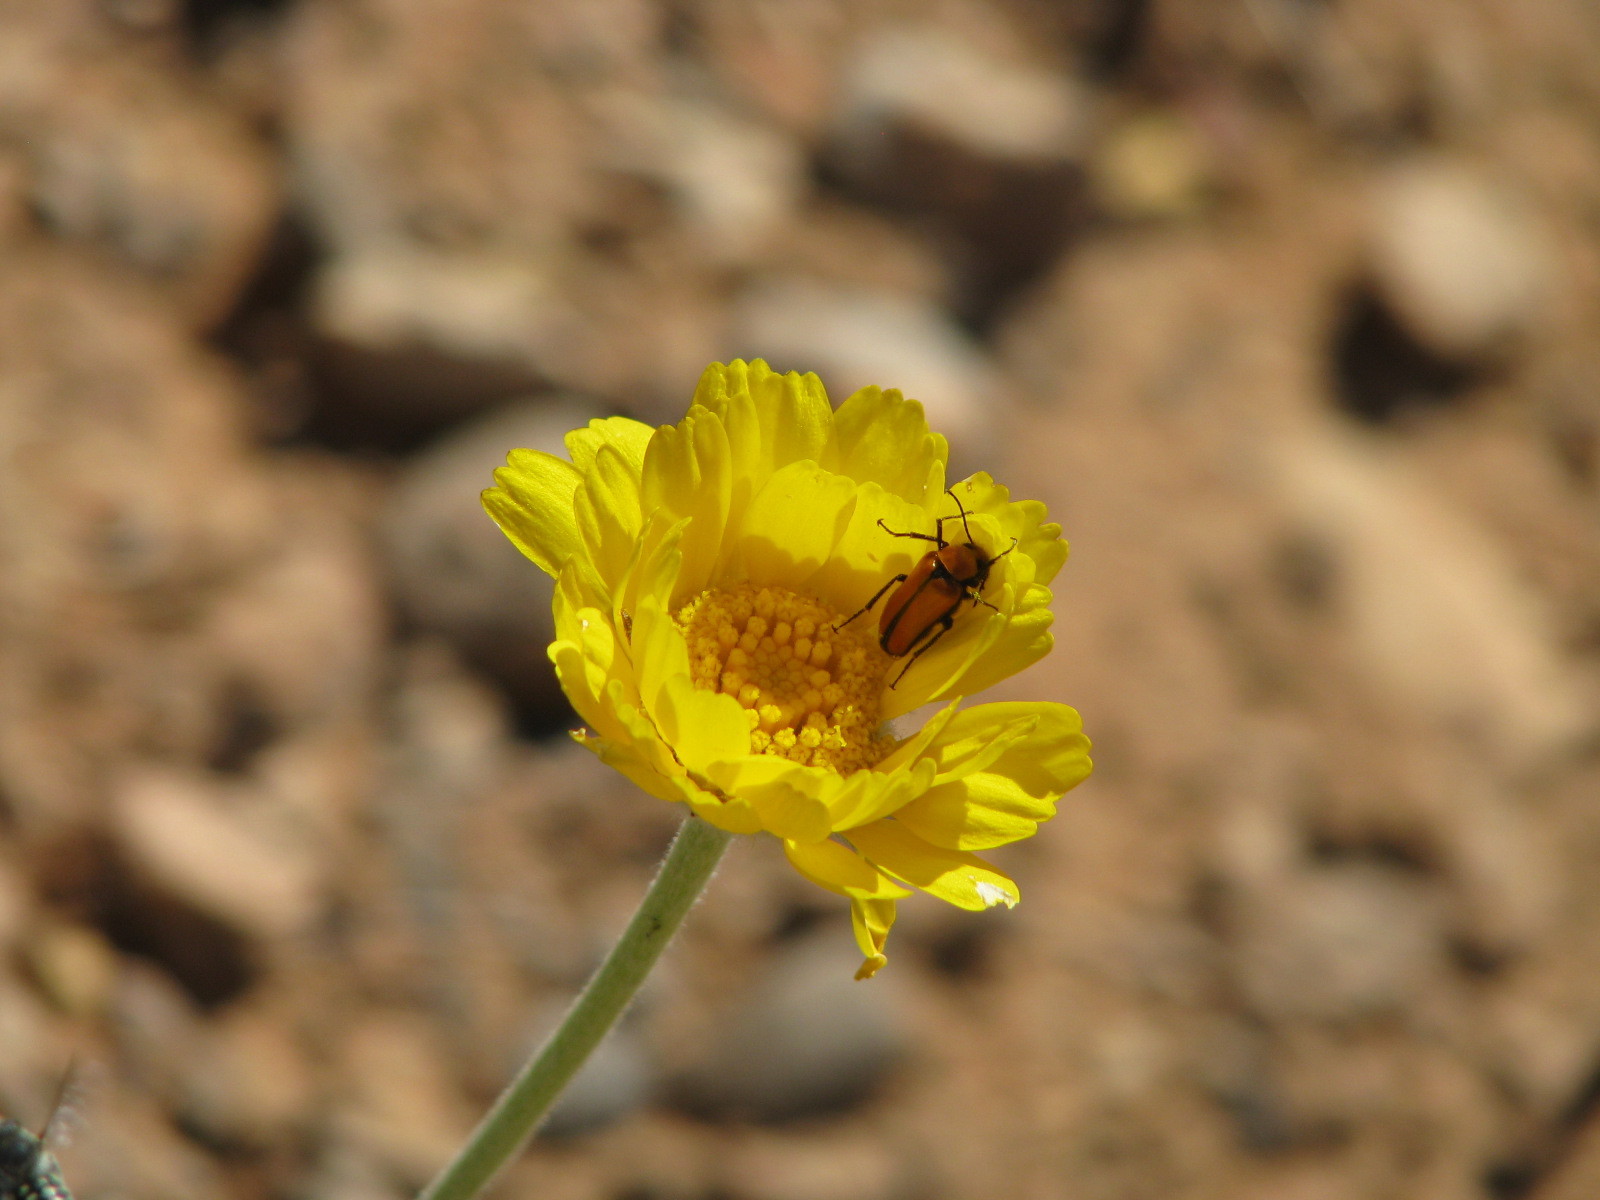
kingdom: Animalia
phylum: Arthropoda
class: Insecta
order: Coleoptera
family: Meloidae
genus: Nemognatha
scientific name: Nemognatha scutellaris
